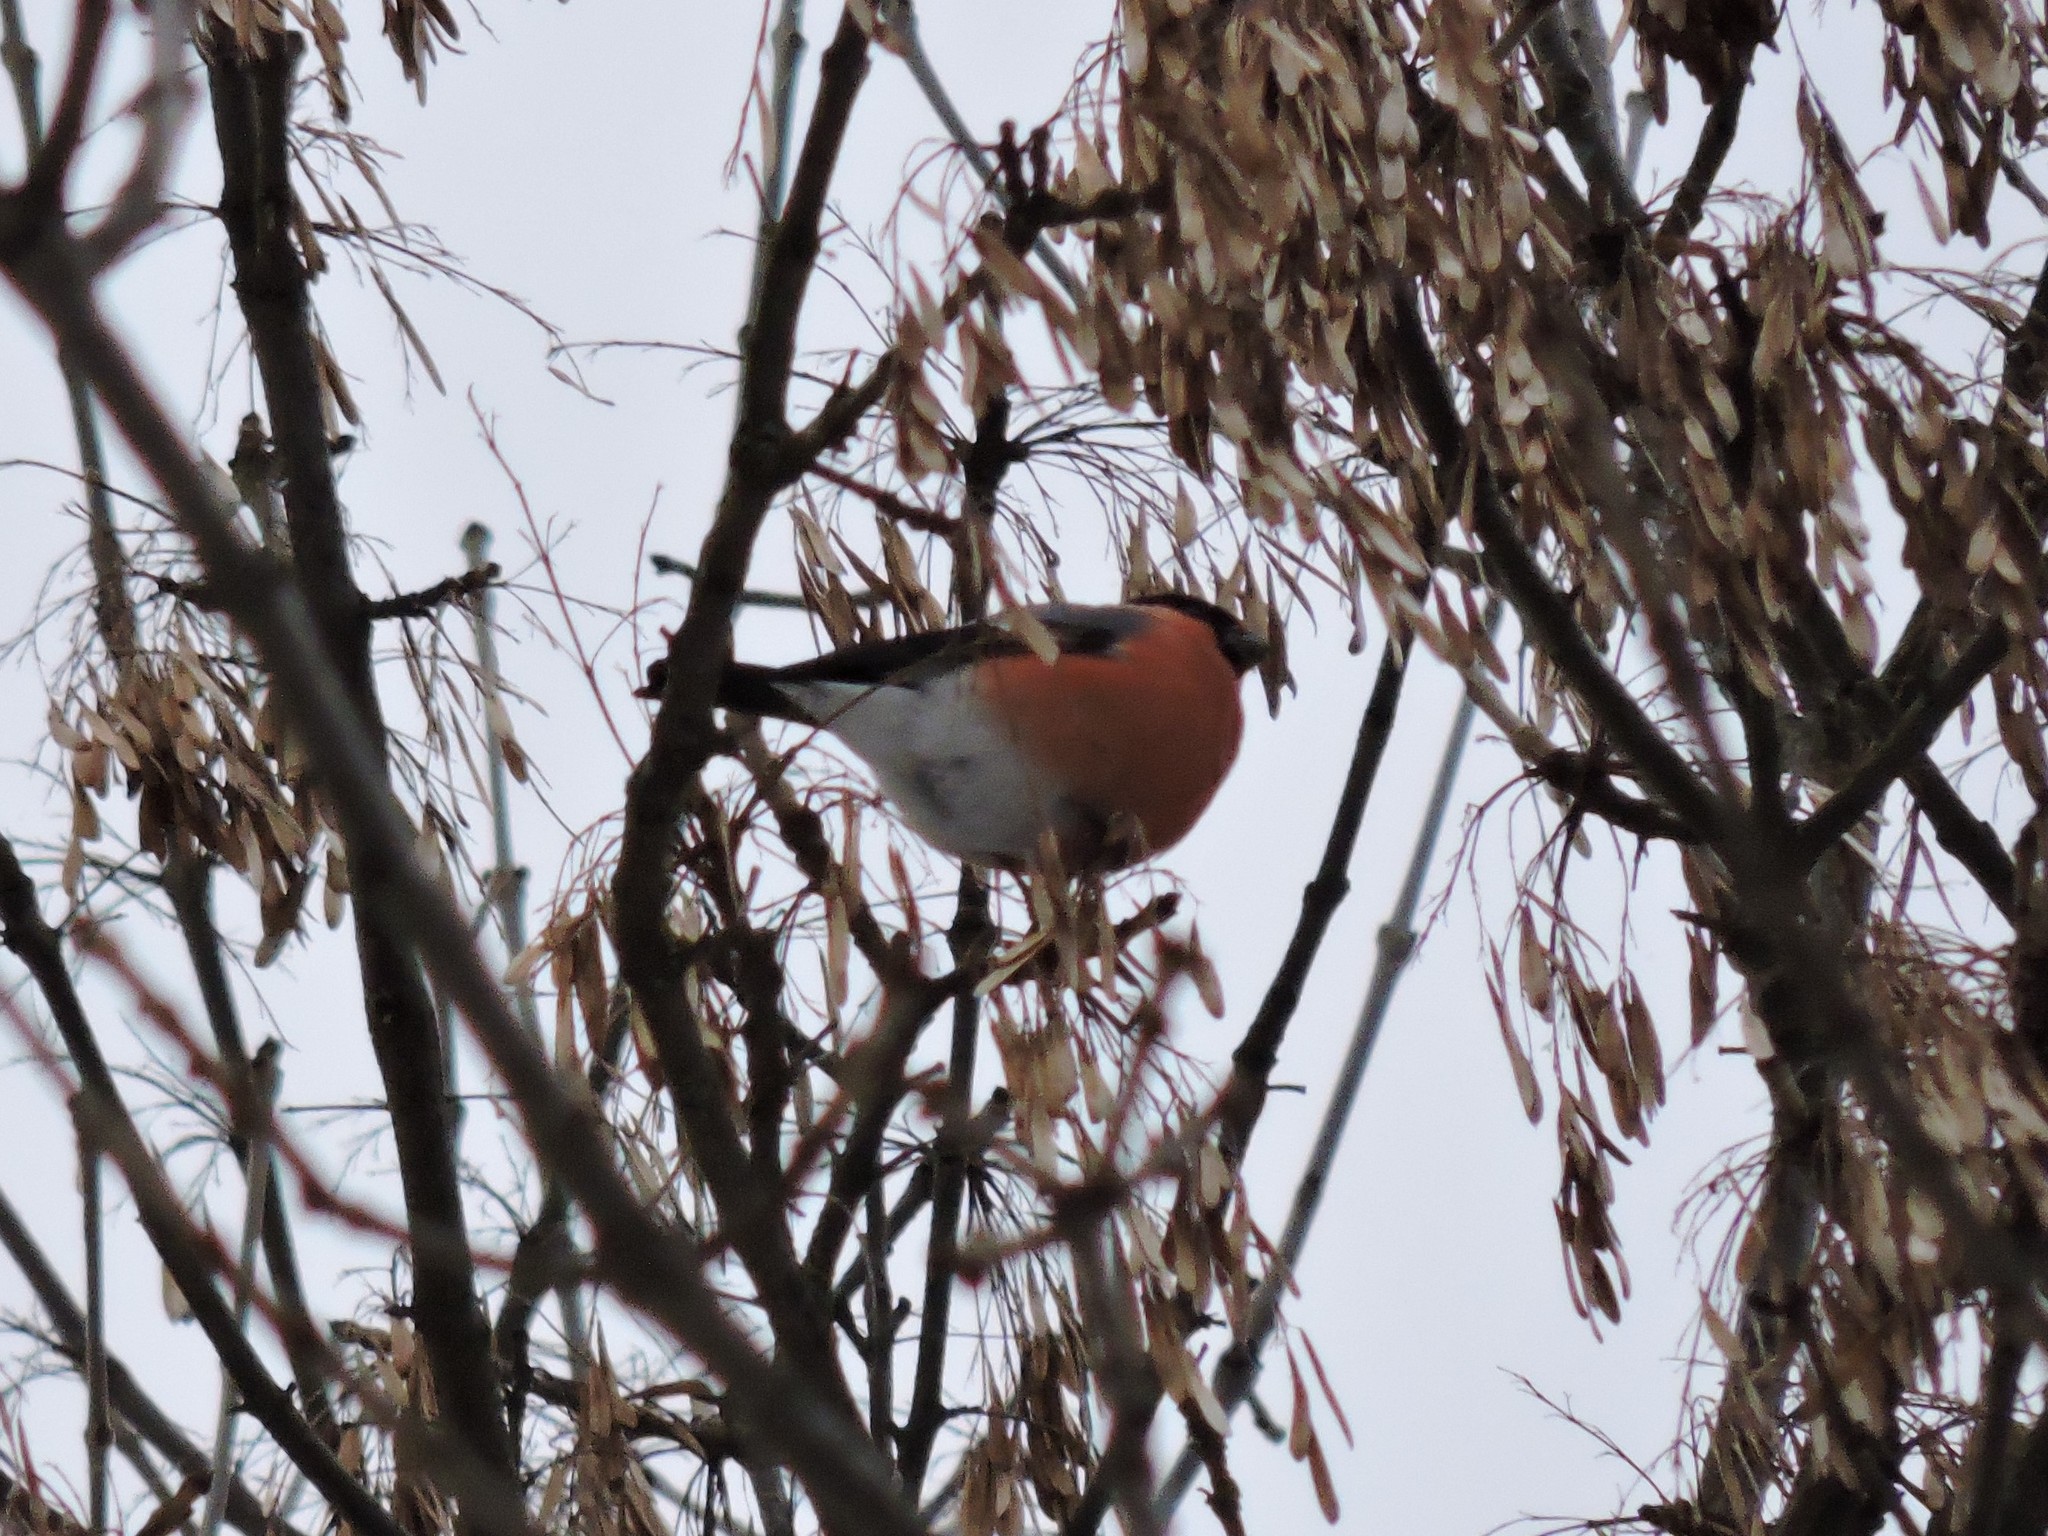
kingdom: Animalia
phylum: Chordata
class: Aves
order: Passeriformes
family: Fringillidae
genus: Pyrrhula
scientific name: Pyrrhula pyrrhula
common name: Eurasian bullfinch
